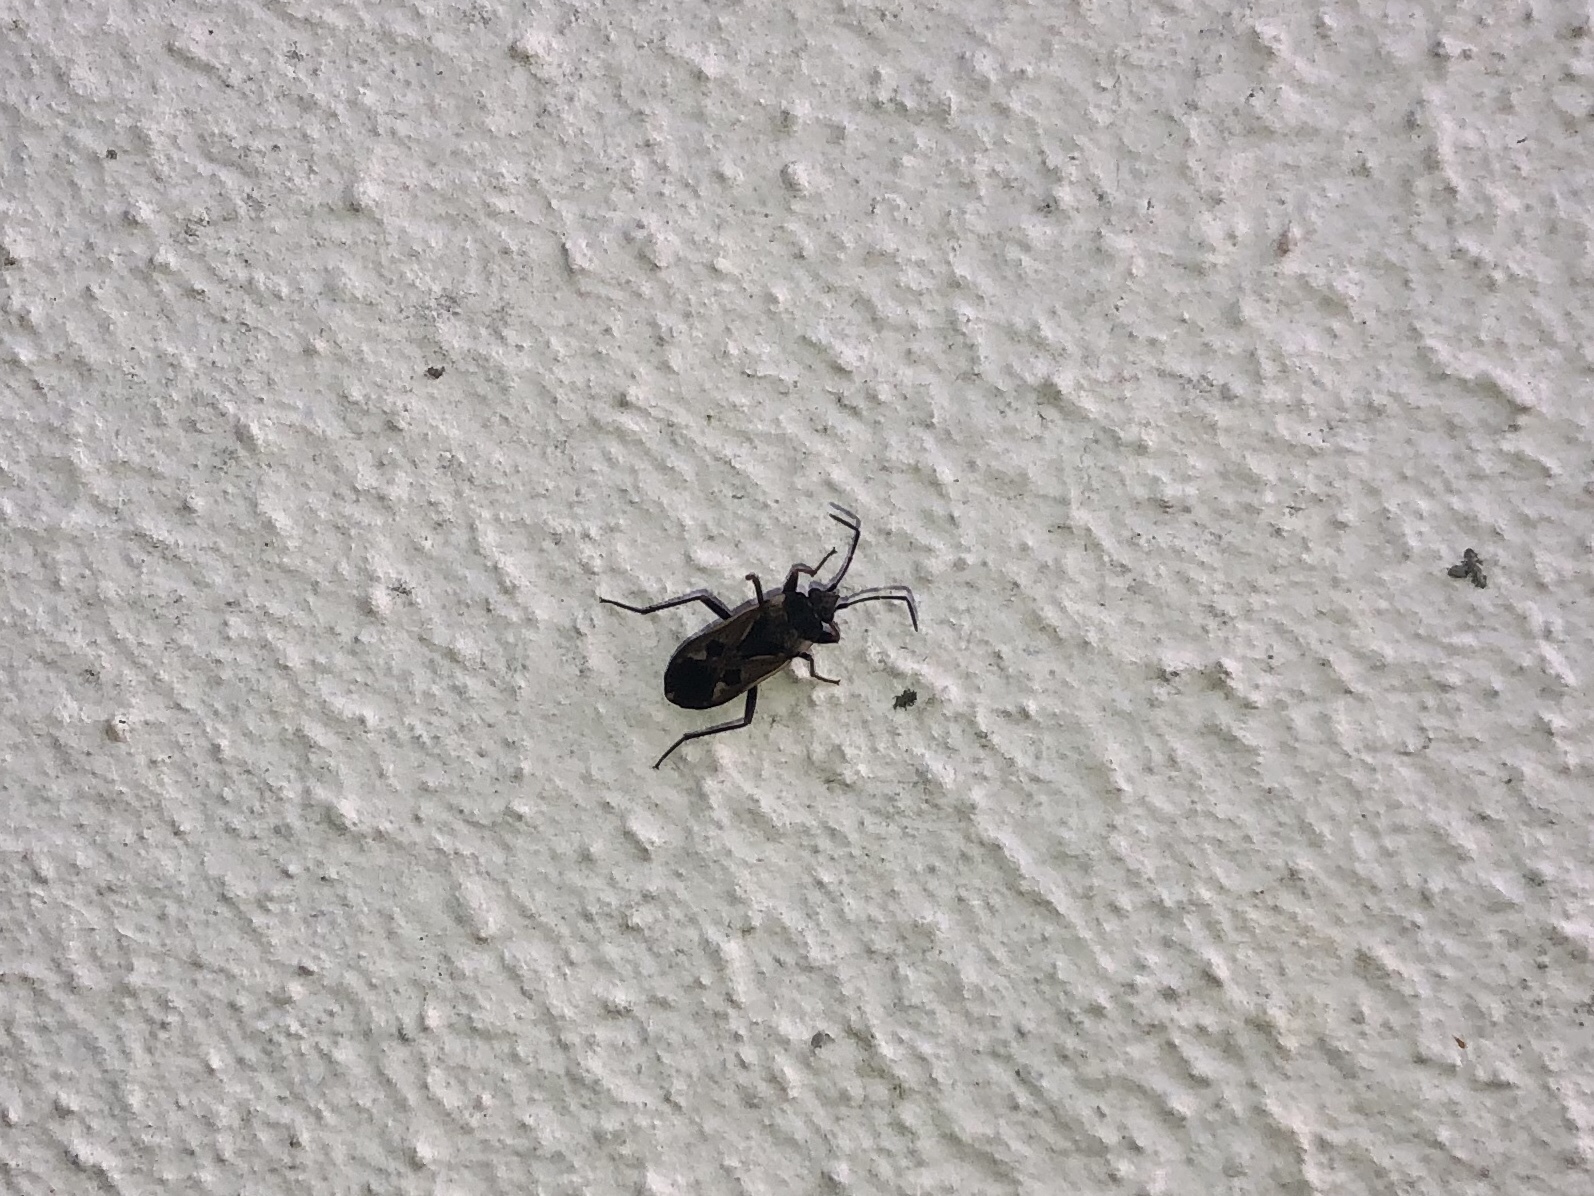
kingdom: Animalia
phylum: Arthropoda
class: Insecta
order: Hemiptera
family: Rhyparochromidae
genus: Rhyparochromus
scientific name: Rhyparochromus vulgaris
